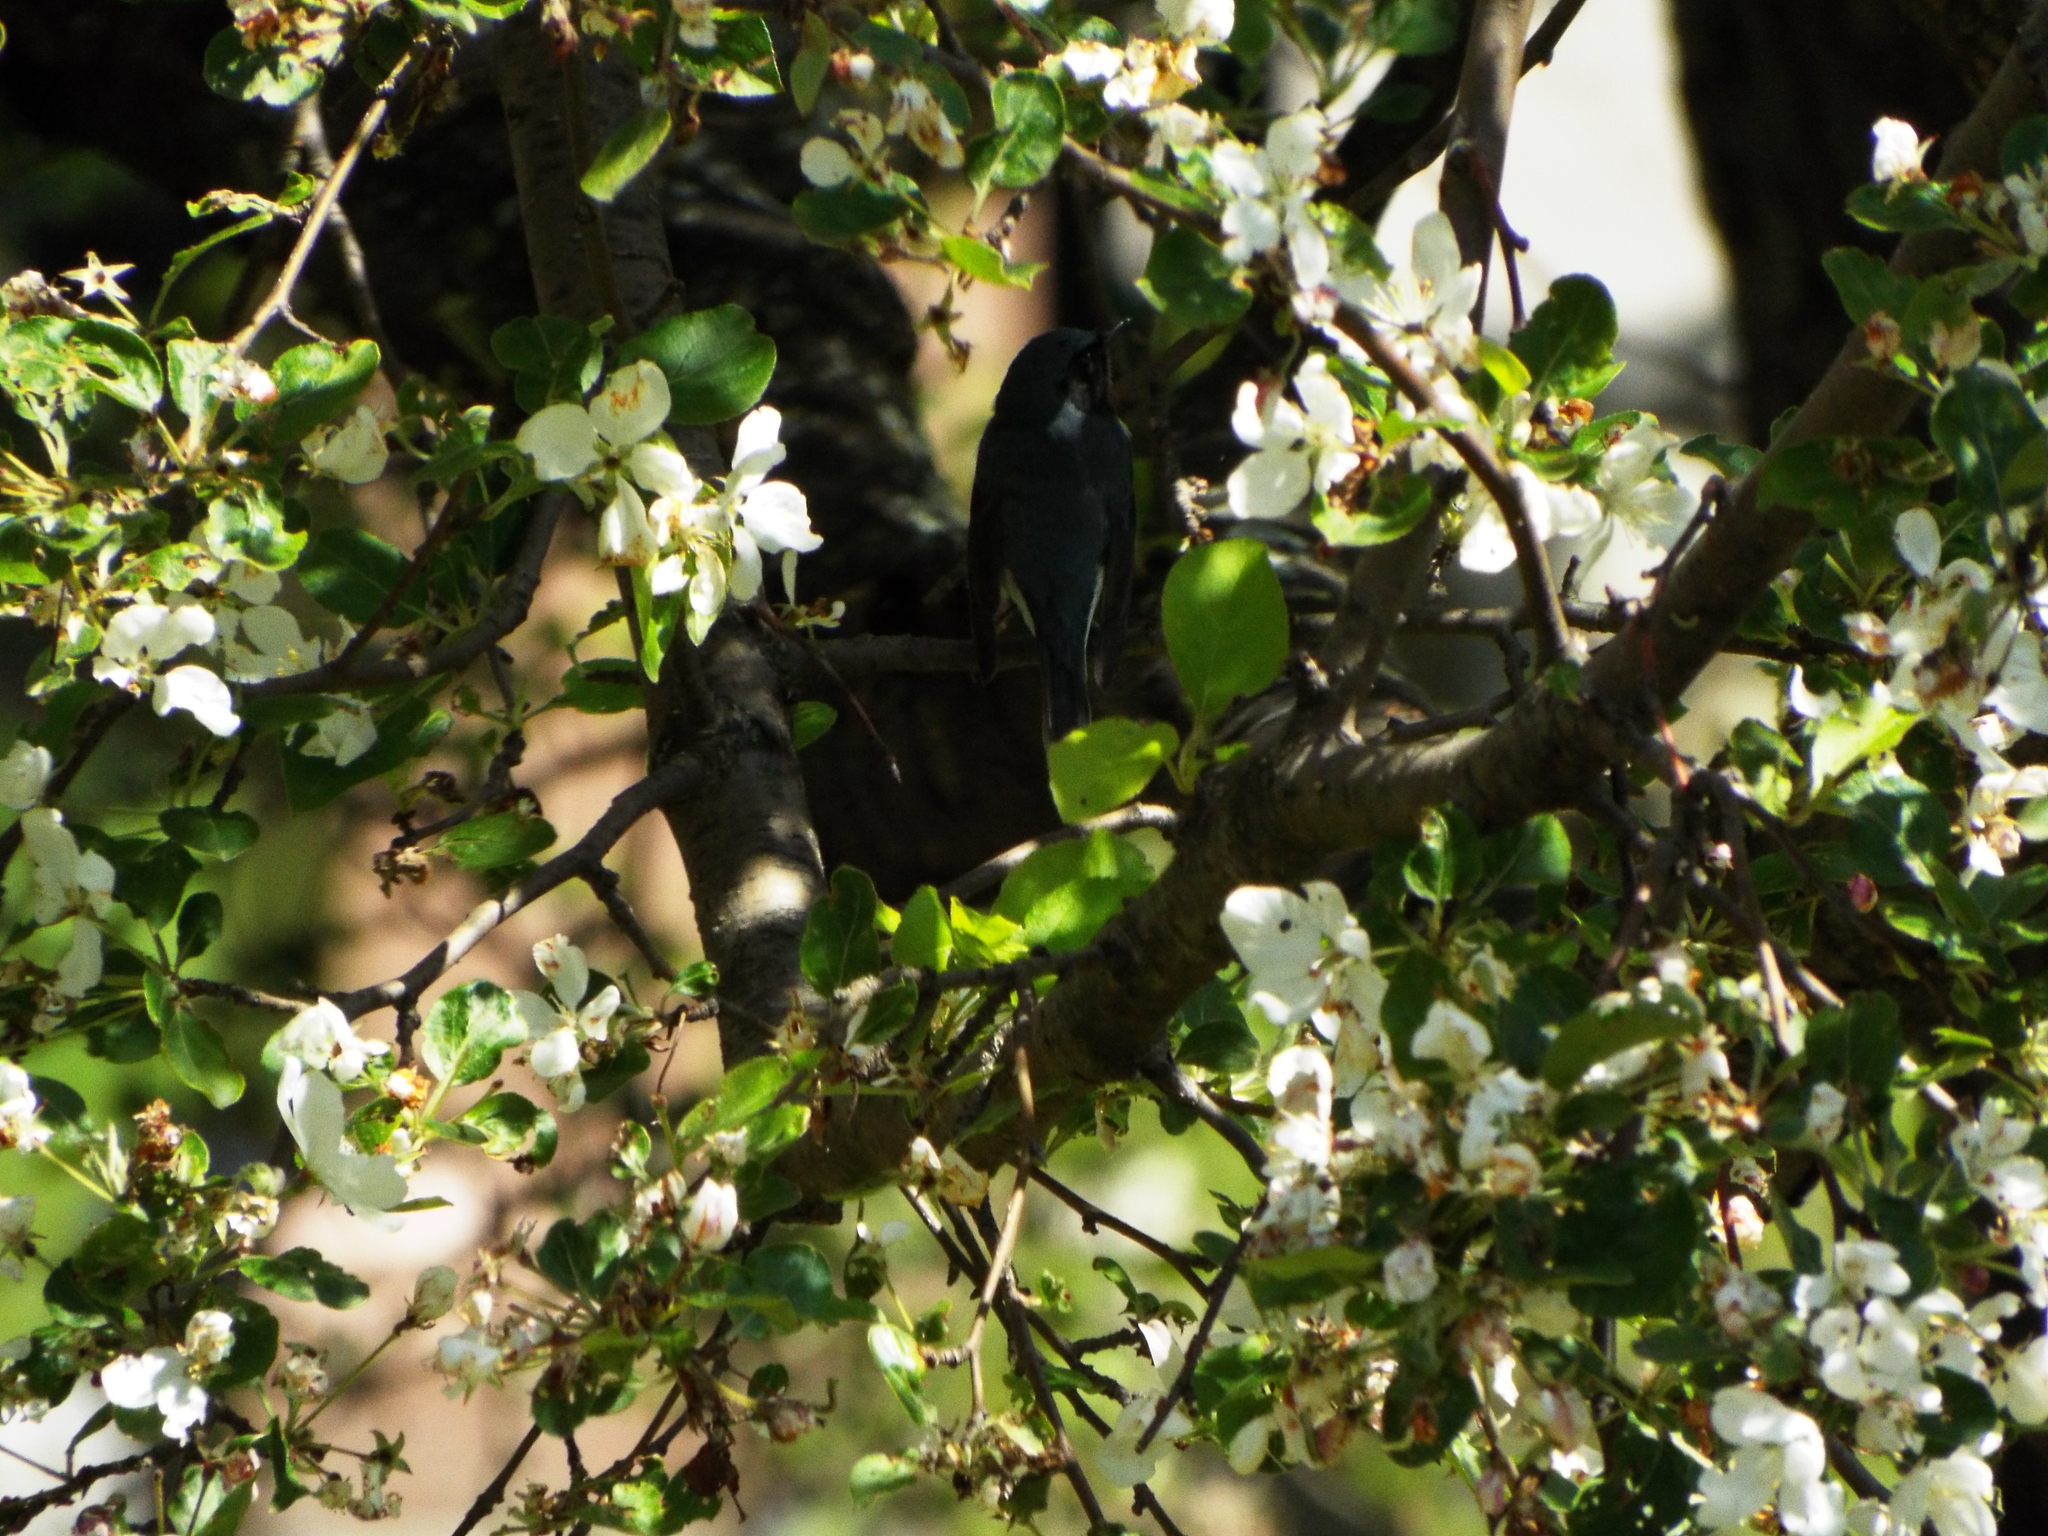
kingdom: Animalia
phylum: Chordata
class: Aves
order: Passeriformes
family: Parulidae
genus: Setophaga
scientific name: Setophaga caerulescens
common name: Black-throated blue warbler
